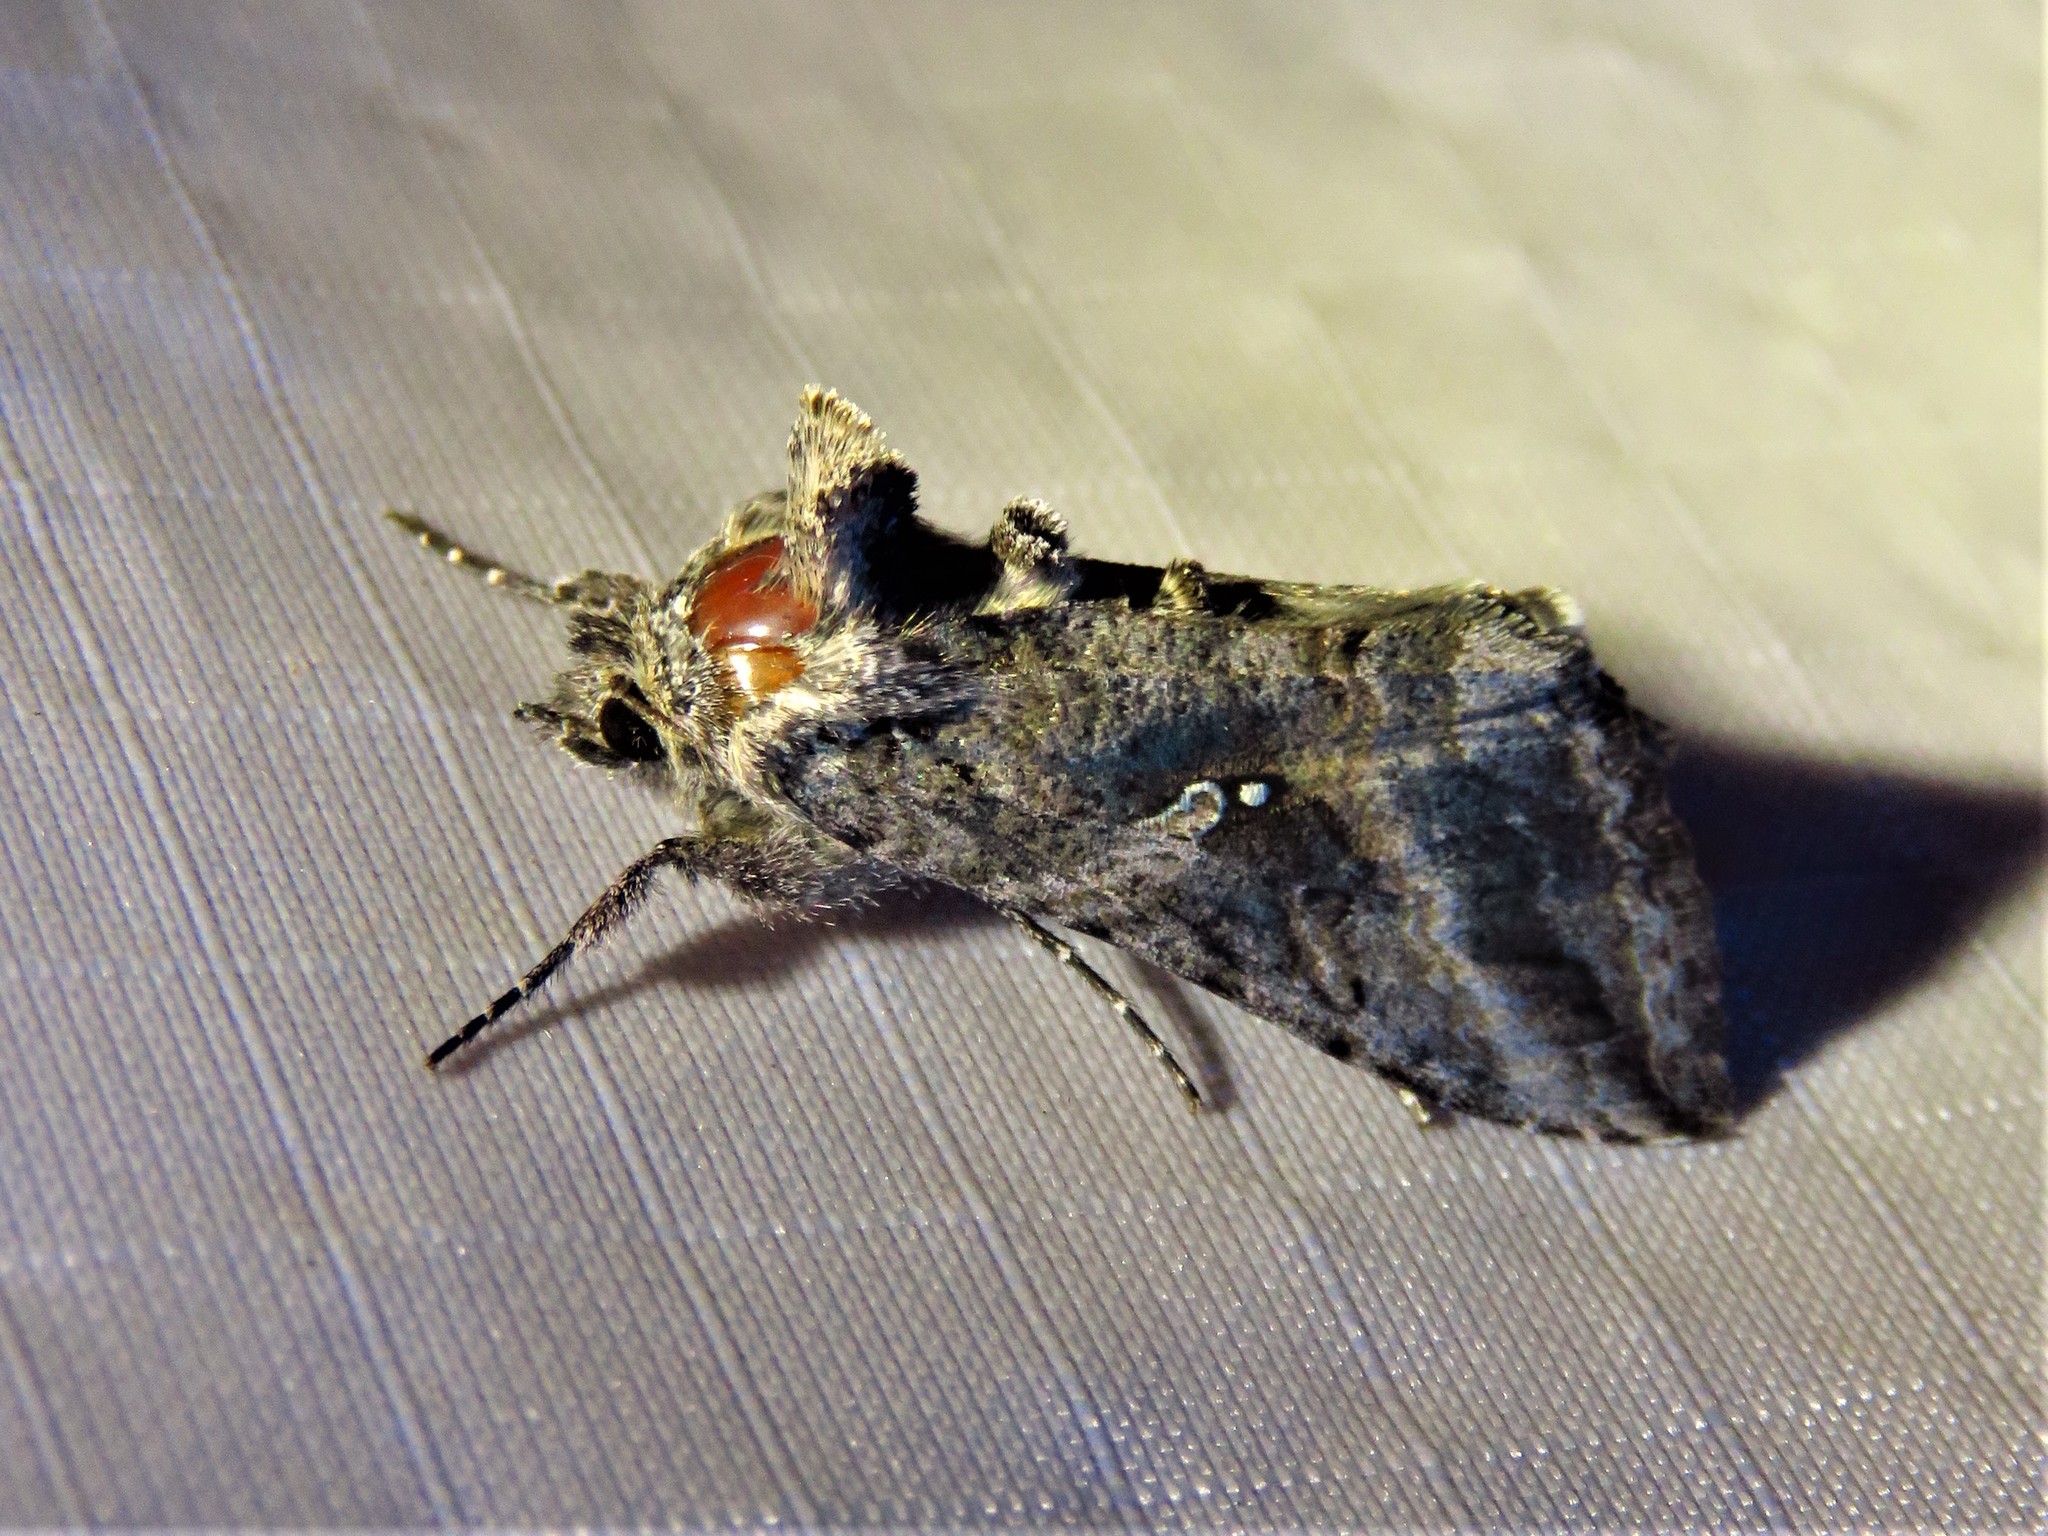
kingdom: Animalia
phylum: Arthropoda
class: Insecta
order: Lepidoptera
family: Noctuidae
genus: Rachiplusia
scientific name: Rachiplusia ou
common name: Gray looper moth
